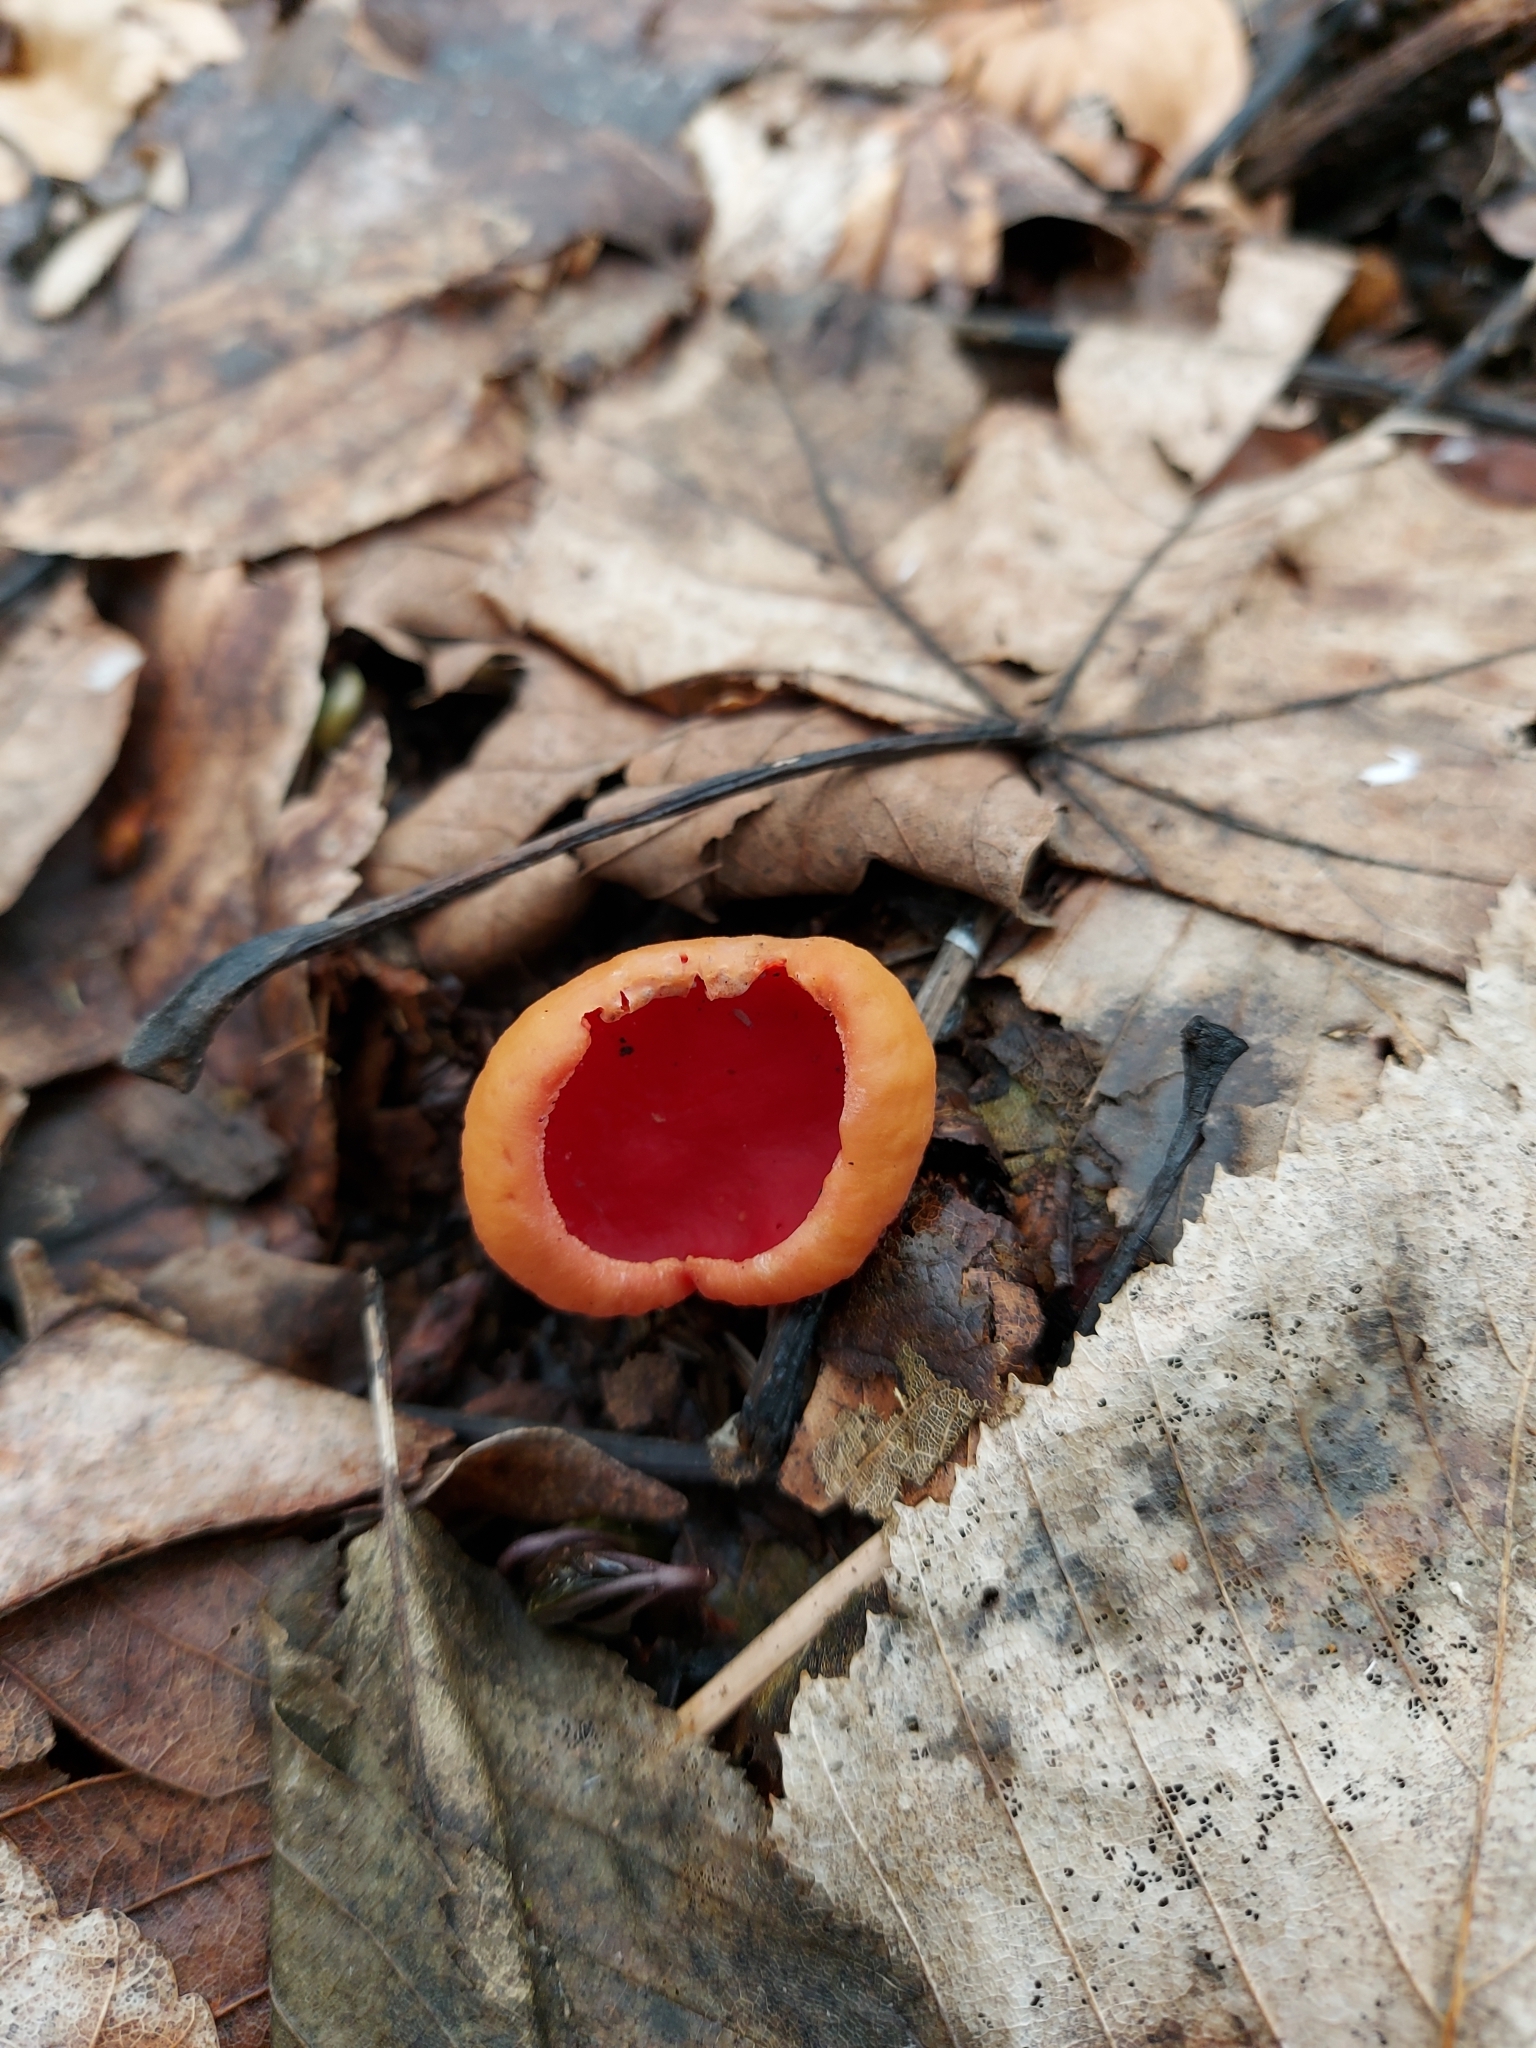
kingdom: Fungi
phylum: Ascomycota
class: Pezizomycetes
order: Pezizales
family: Sarcoscyphaceae
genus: Sarcoscypha
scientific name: Sarcoscypha
